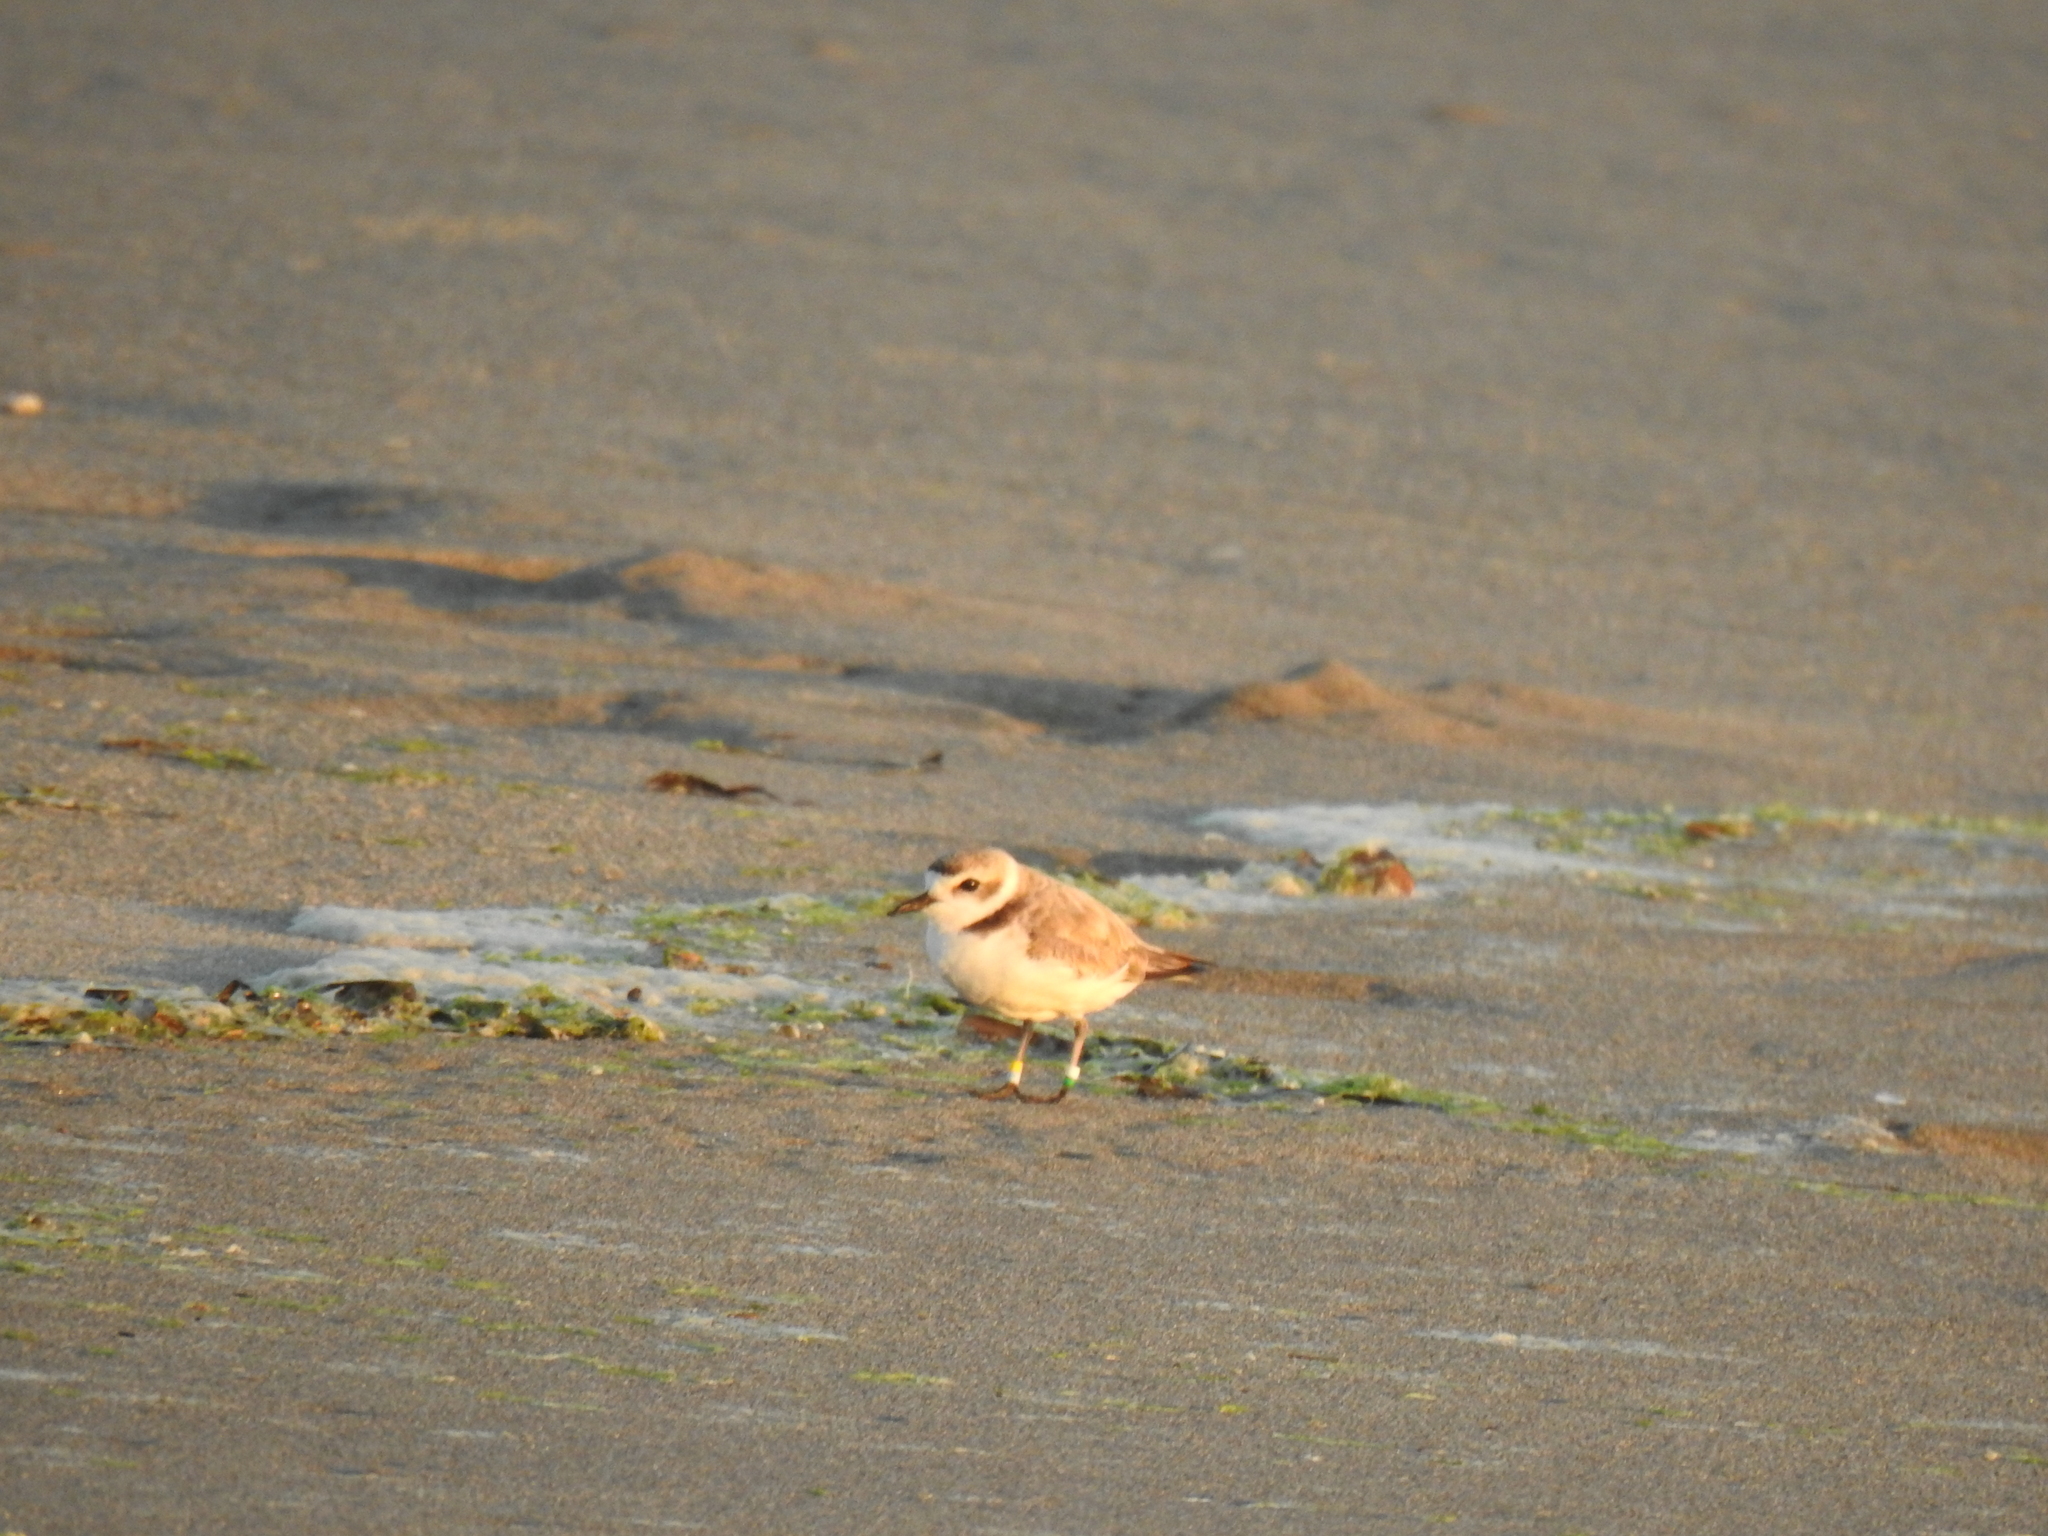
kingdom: Animalia
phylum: Chordata
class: Aves
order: Charadriiformes
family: Charadriidae
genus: Anarhynchus
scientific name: Anarhynchus
